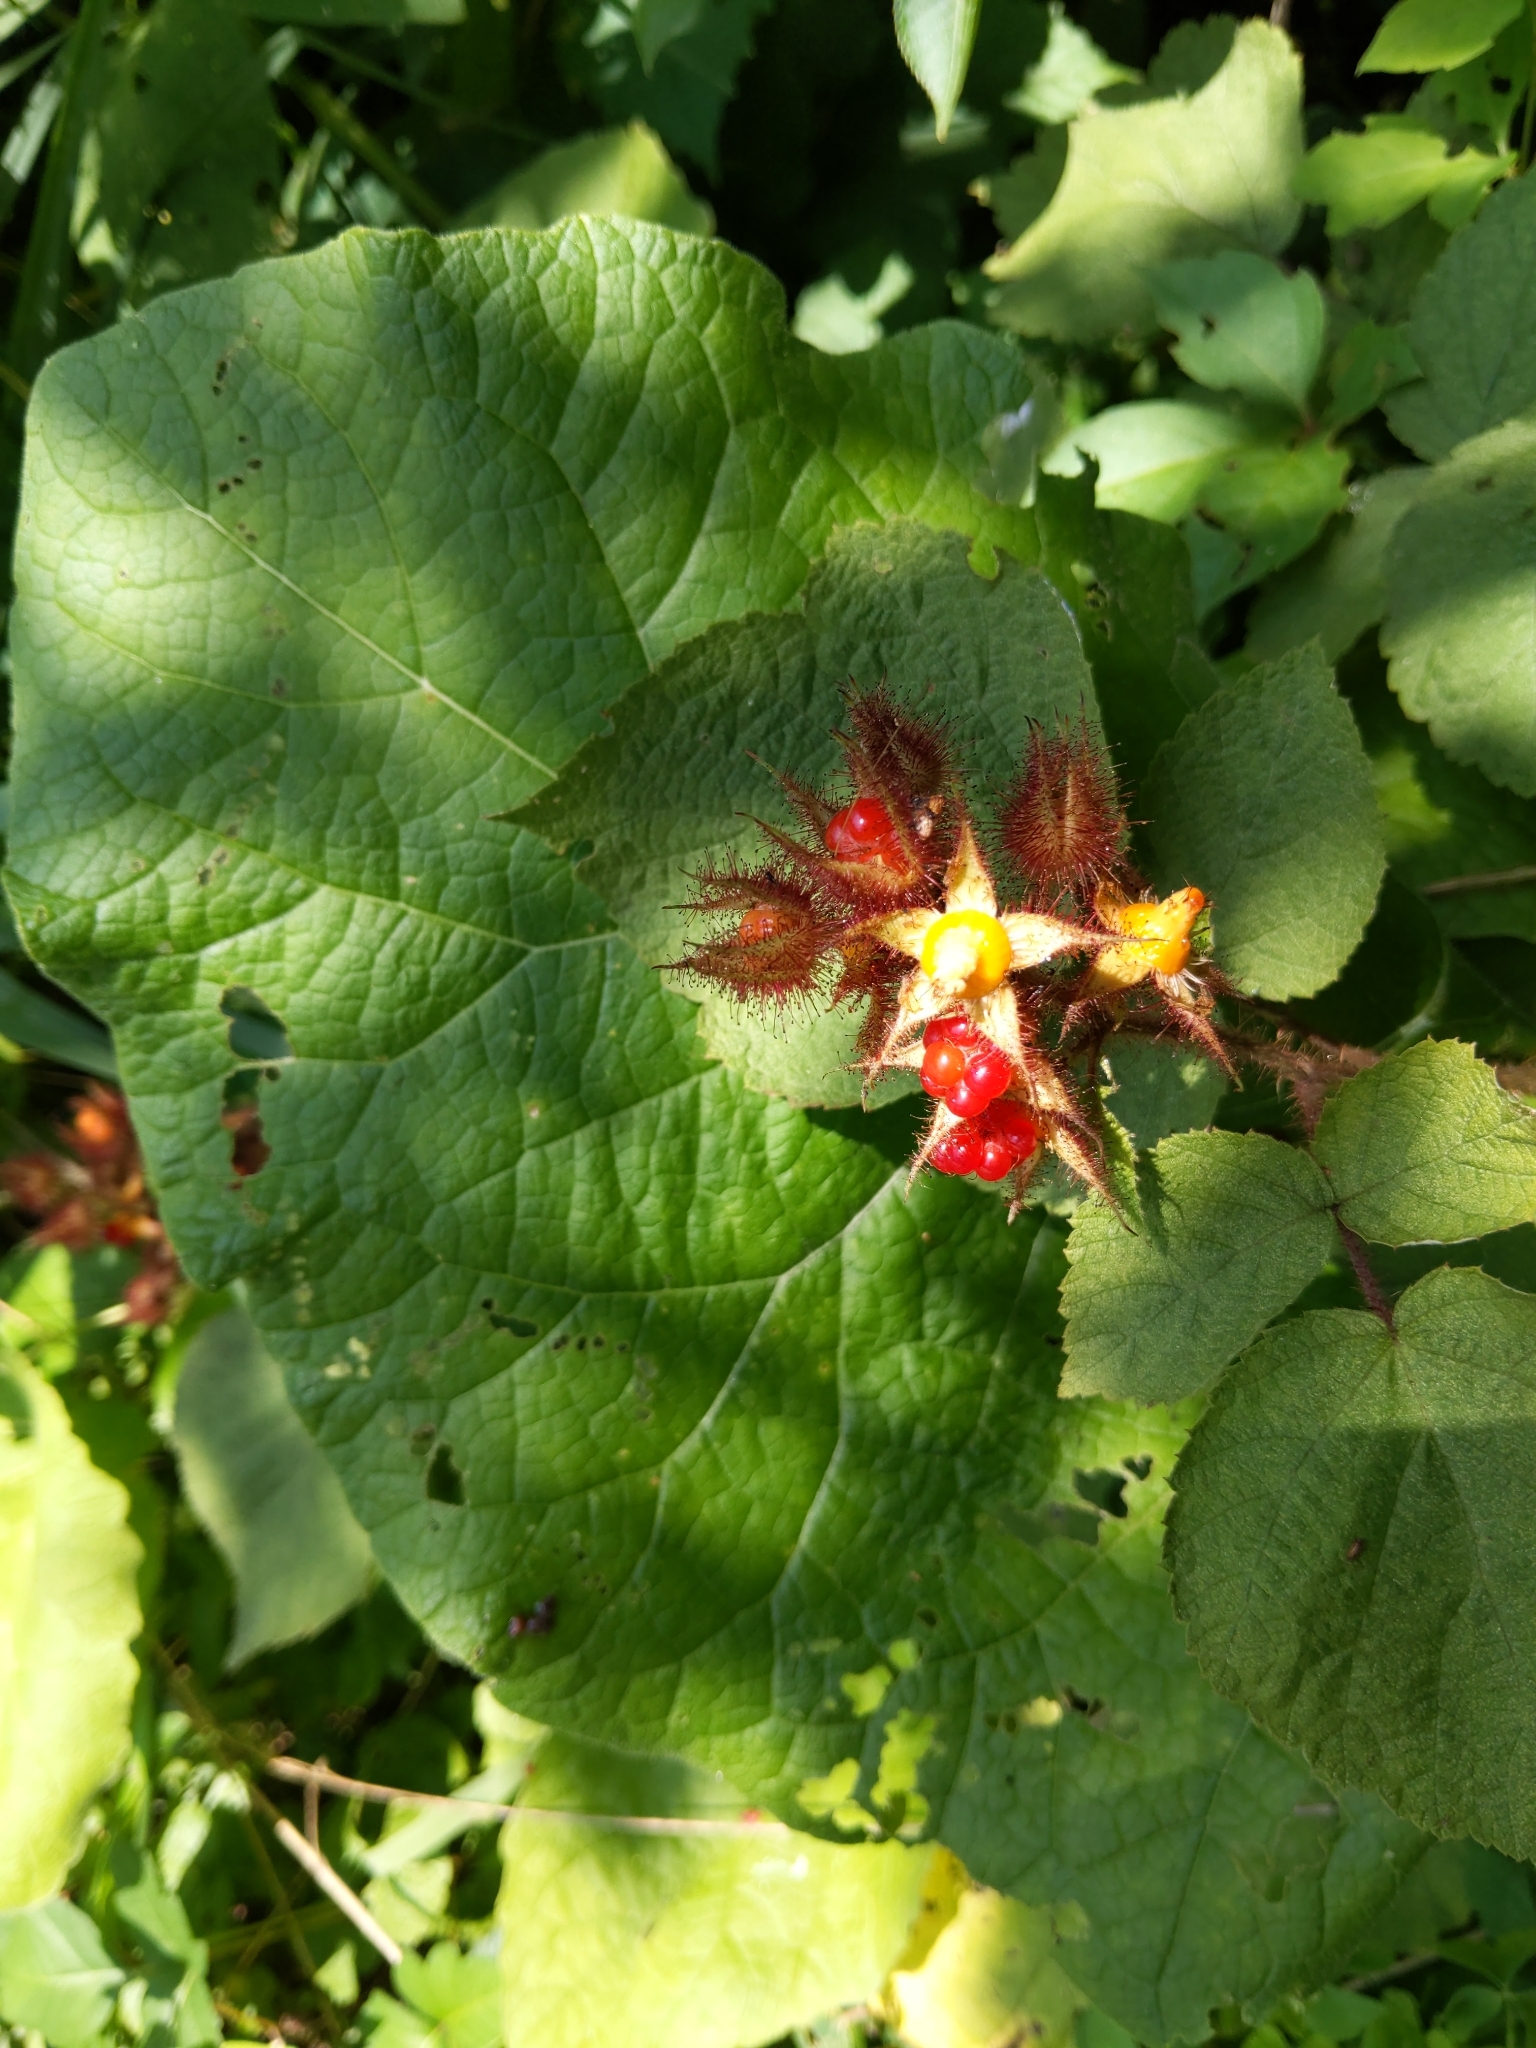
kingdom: Plantae
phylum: Tracheophyta
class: Magnoliopsida
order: Rosales
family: Rosaceae
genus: Rubus
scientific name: Rubus phoenicolasius
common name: Japanese wineberry
